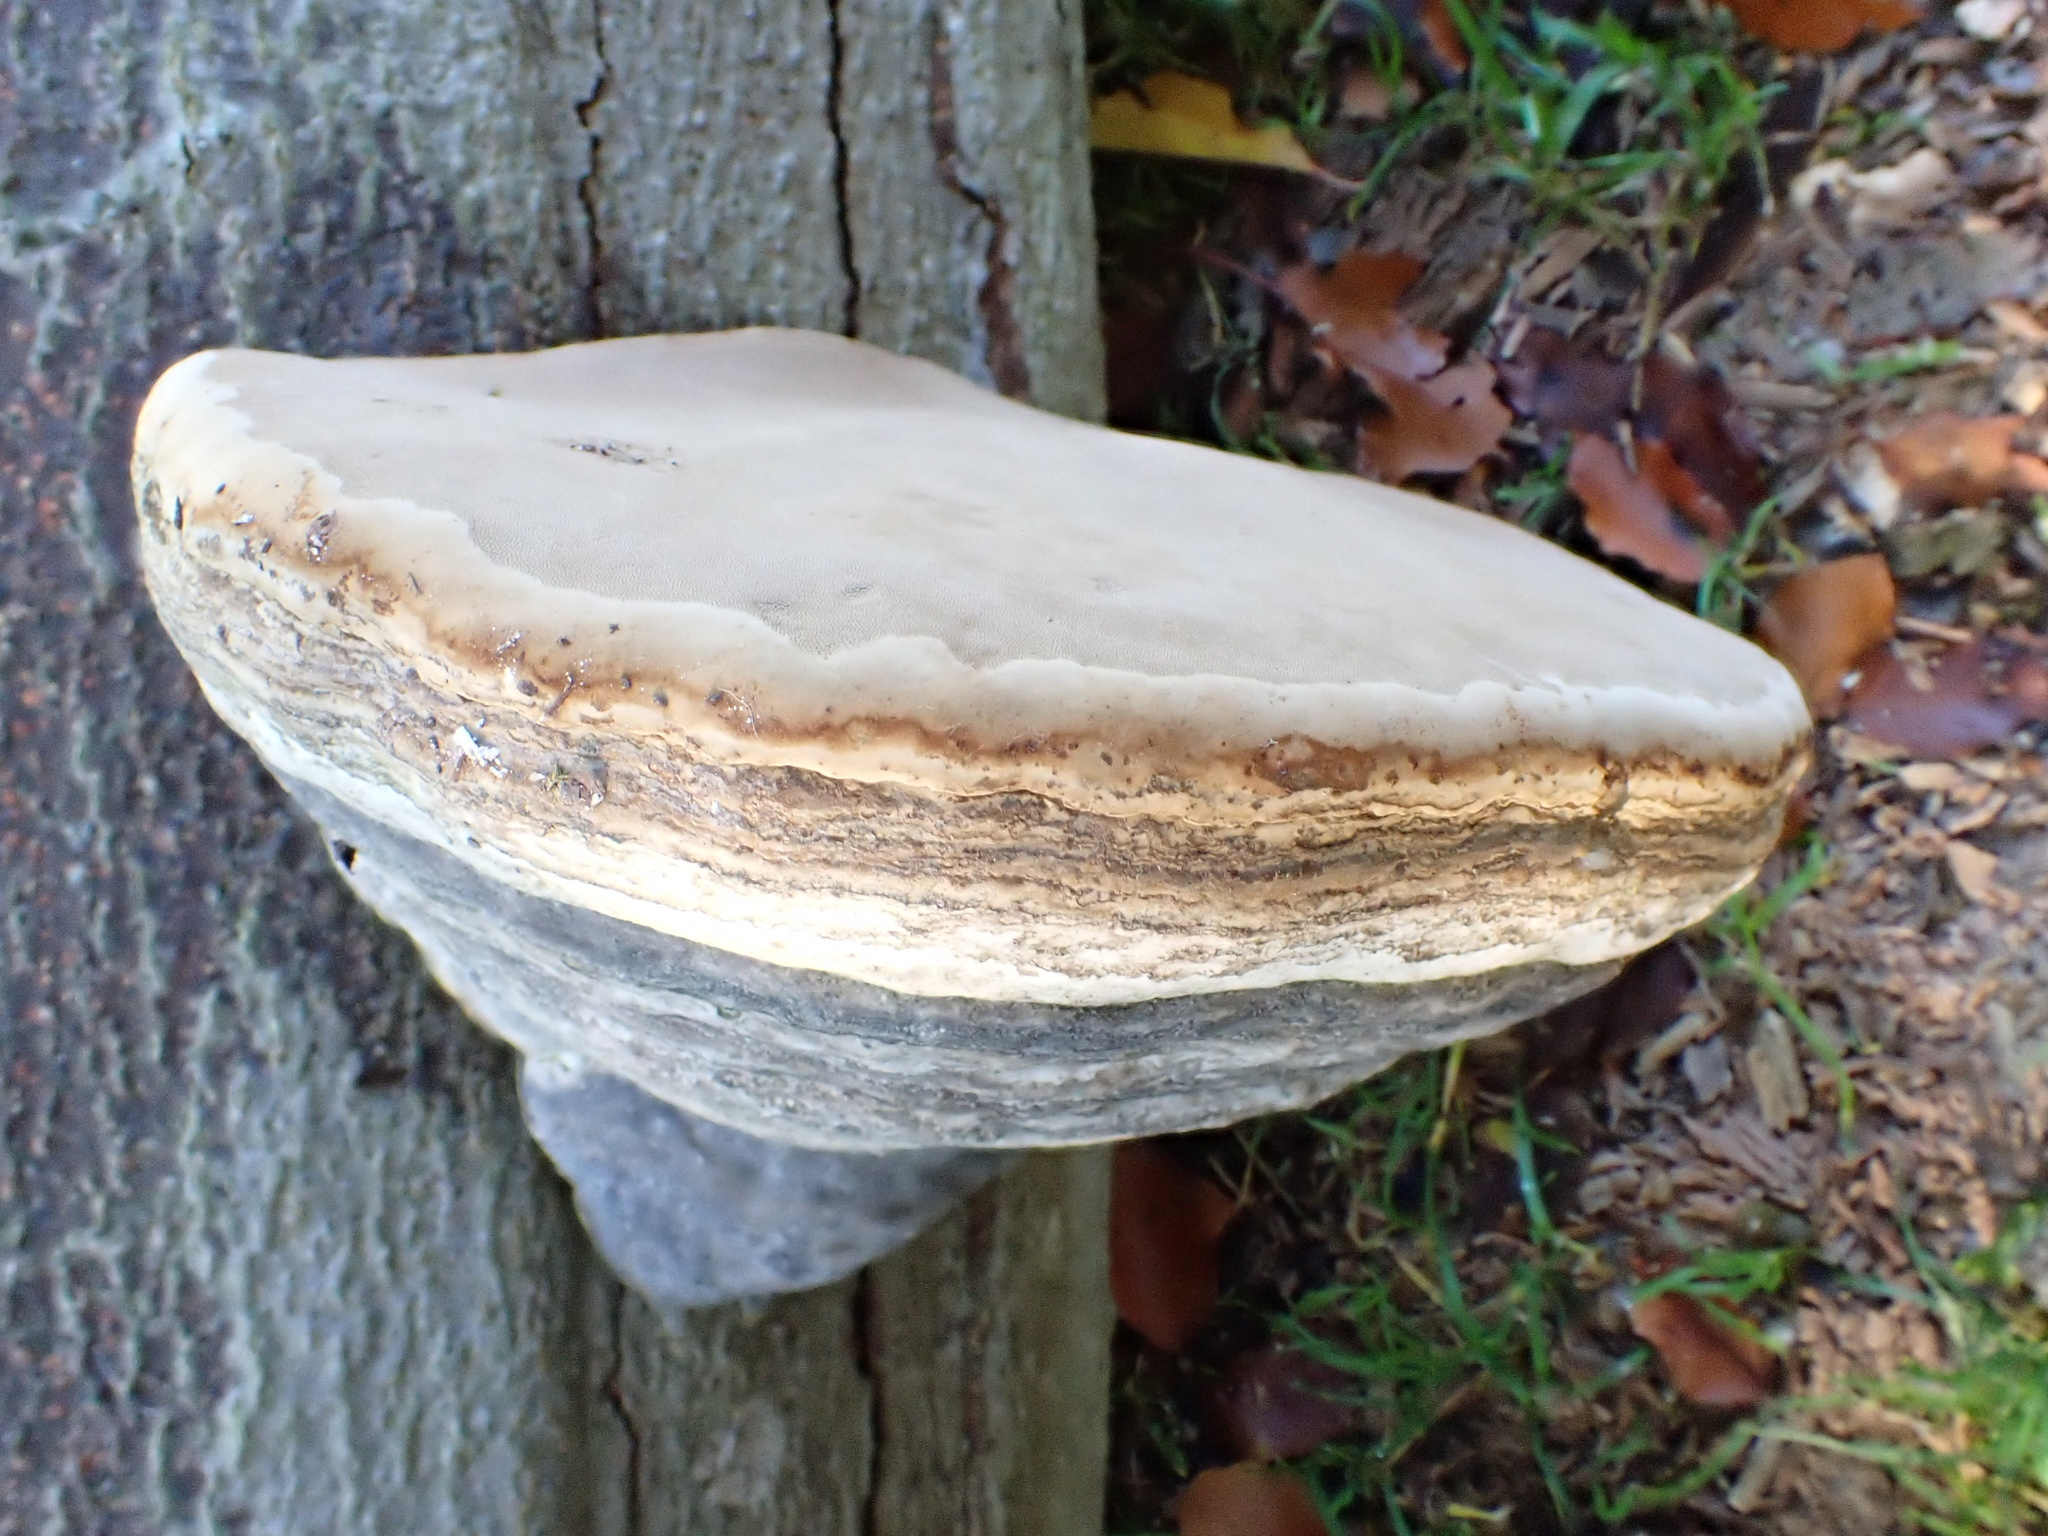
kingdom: Fungi
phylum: Basidiomycota
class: Agaricomycetes
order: Polyporales
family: Polyporaceae
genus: Fomes
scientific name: Fomes fomentarius
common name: Hoof fungus
